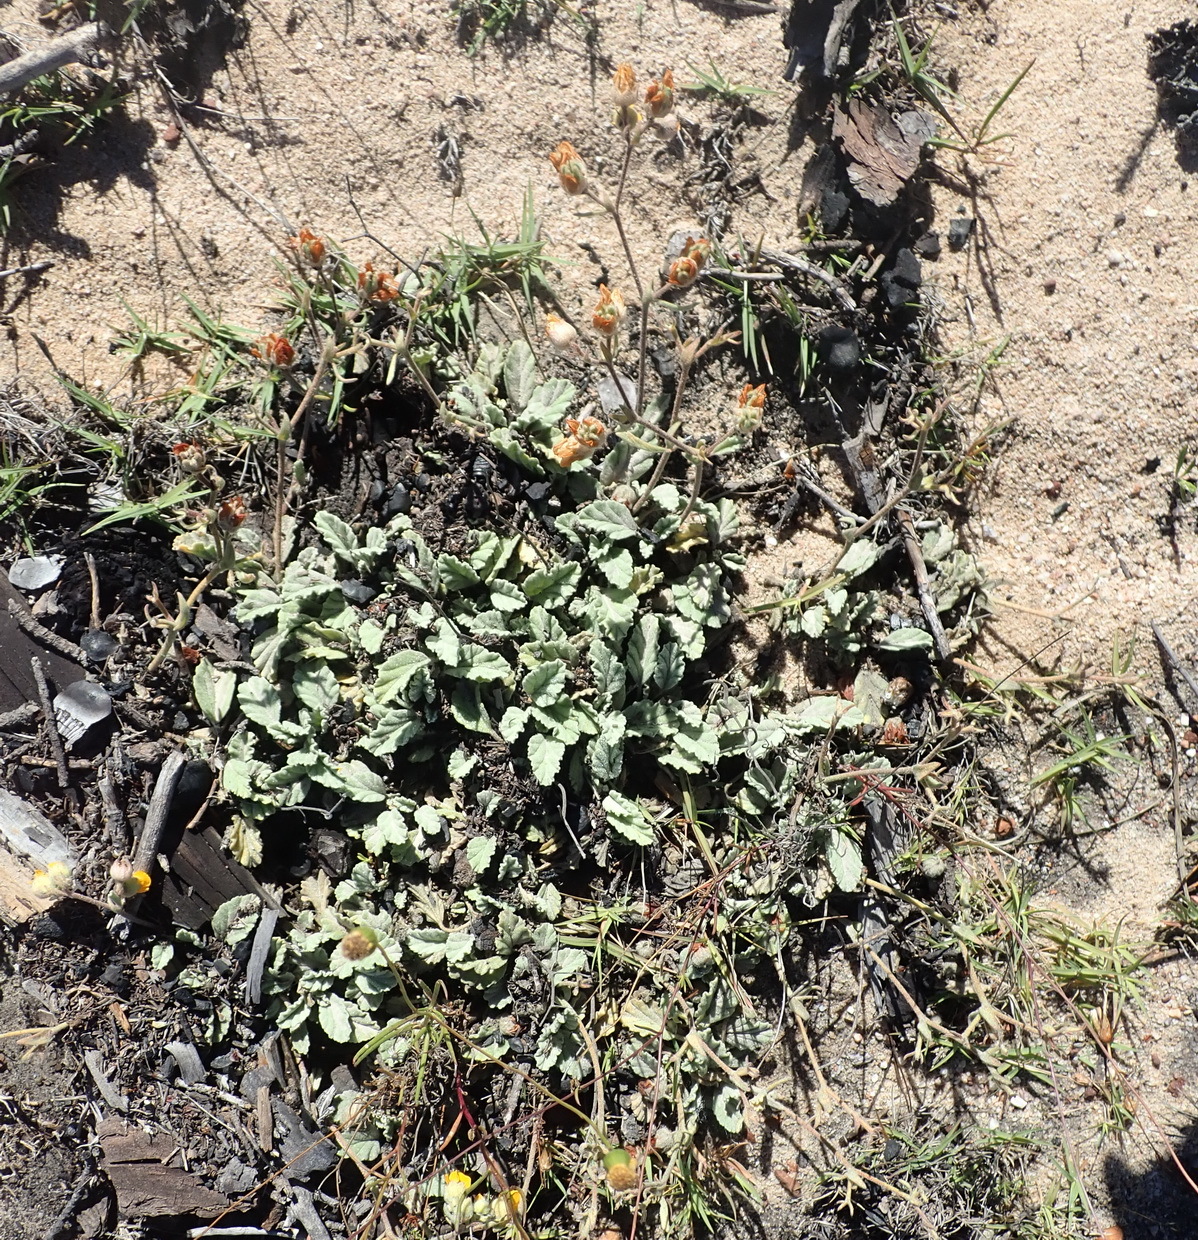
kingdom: Plantae
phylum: Tracheophyta
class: Magnoliopsida
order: Malvales
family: Malvaceae
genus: Hermannia
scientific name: Hermannia althaeifolia
